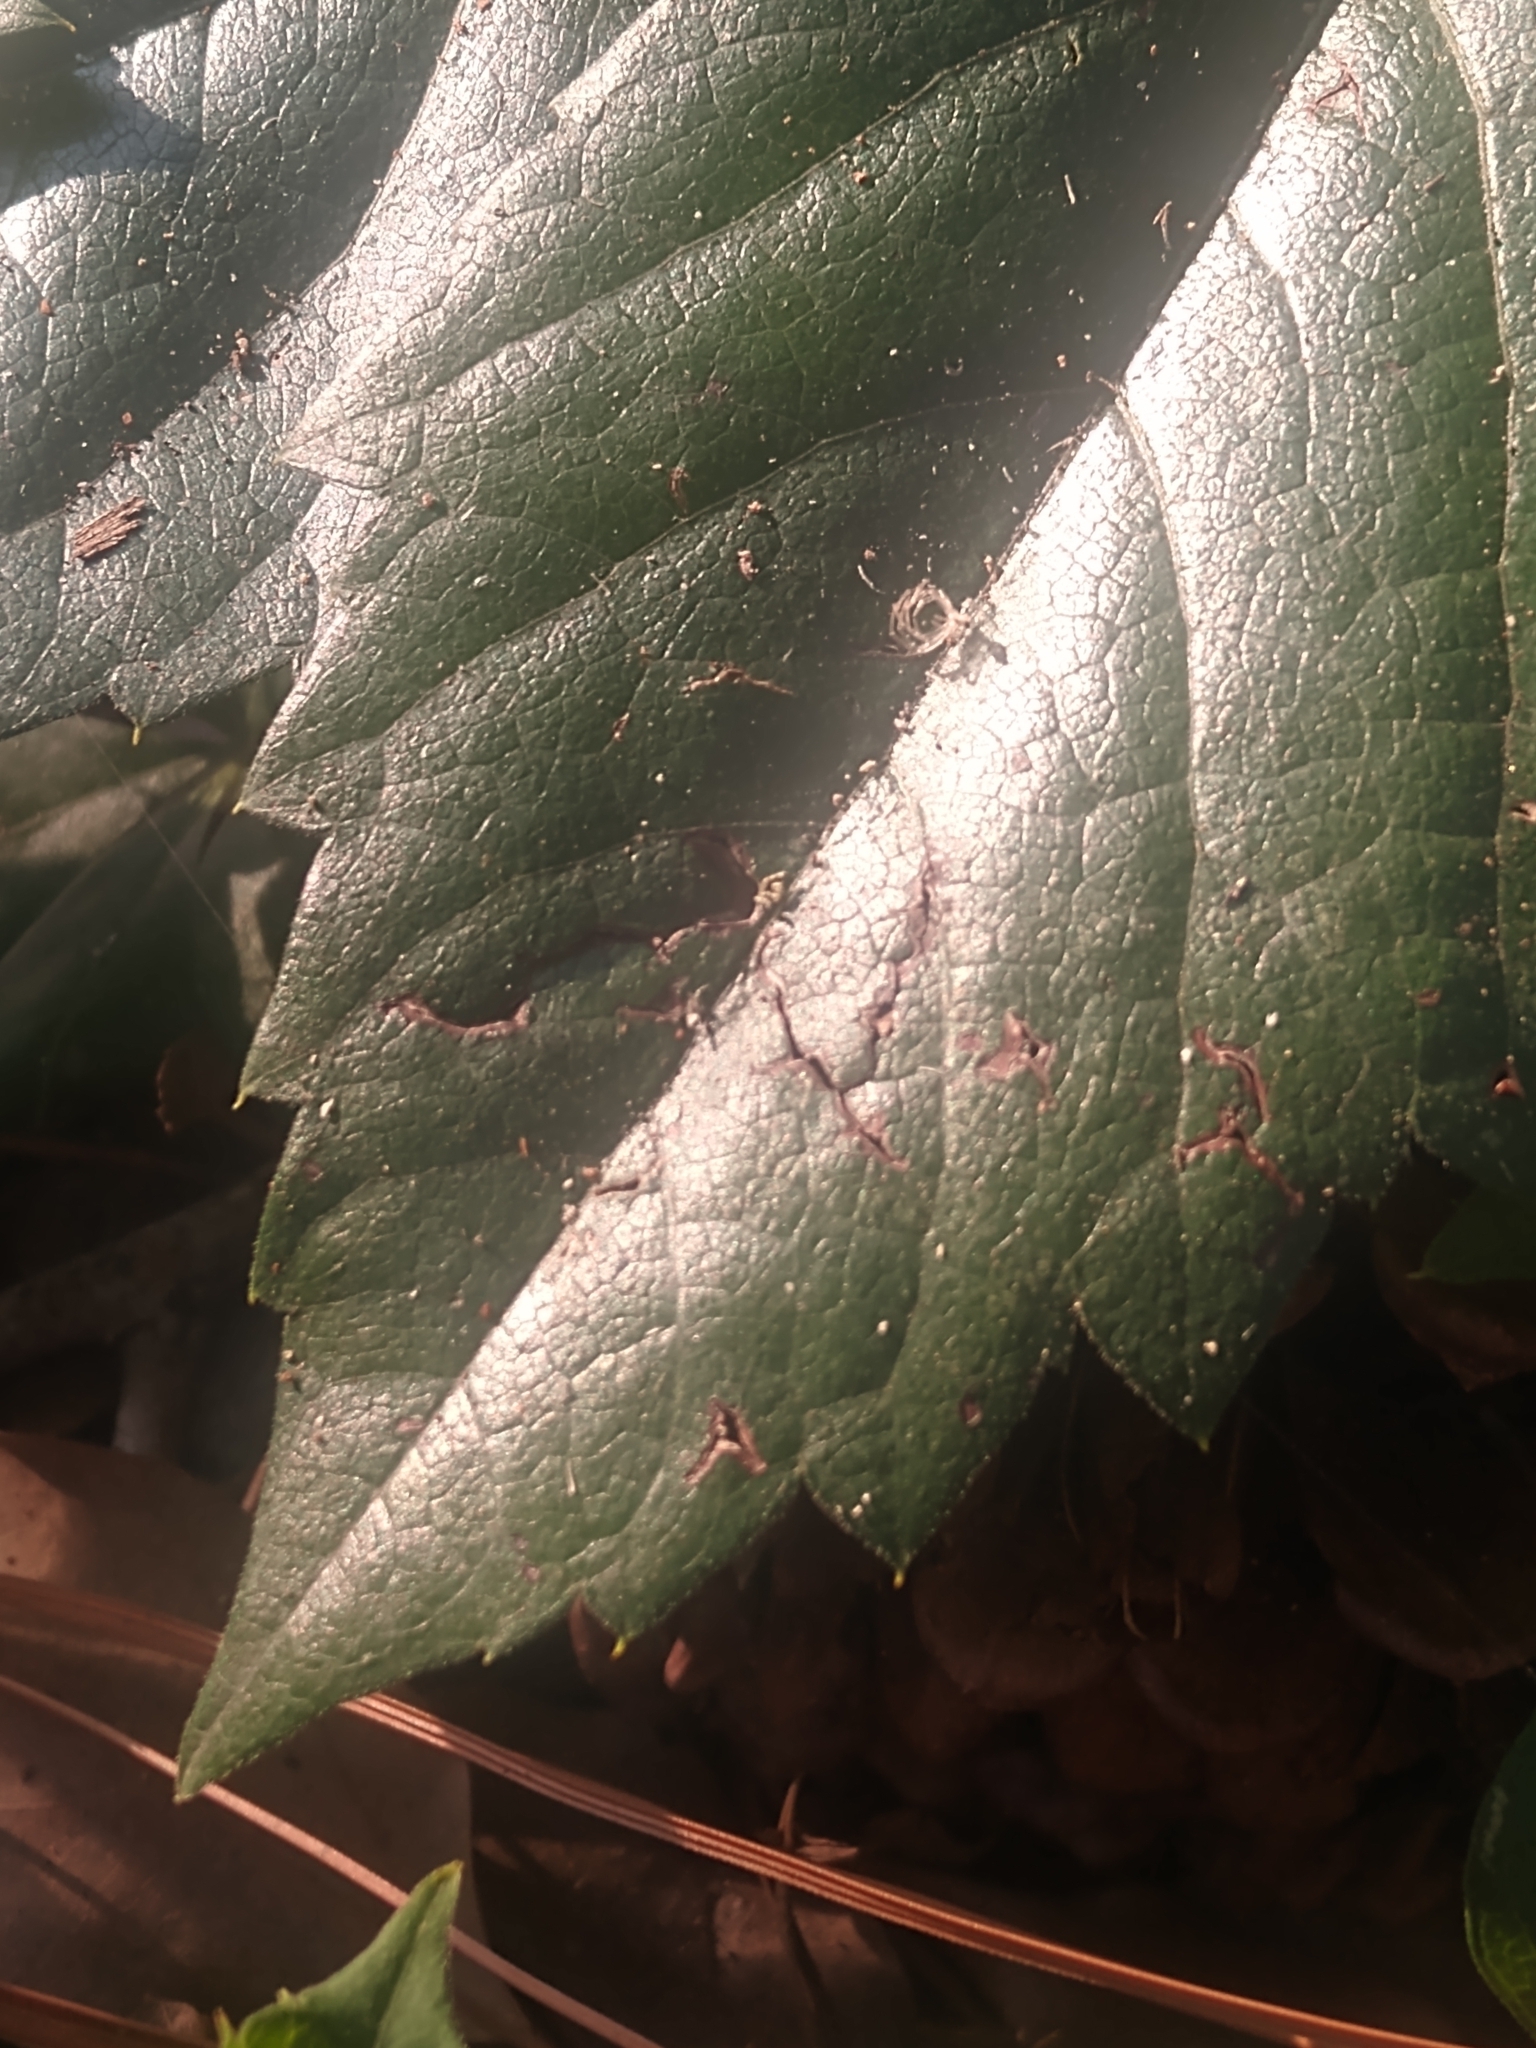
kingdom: Plantae
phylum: Tracheophyta
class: Magnoliopsida
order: Vitales
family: Vitaceae
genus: Parthenocissus
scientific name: Parthenocissus quinquefolia
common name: Virginia-creeper
